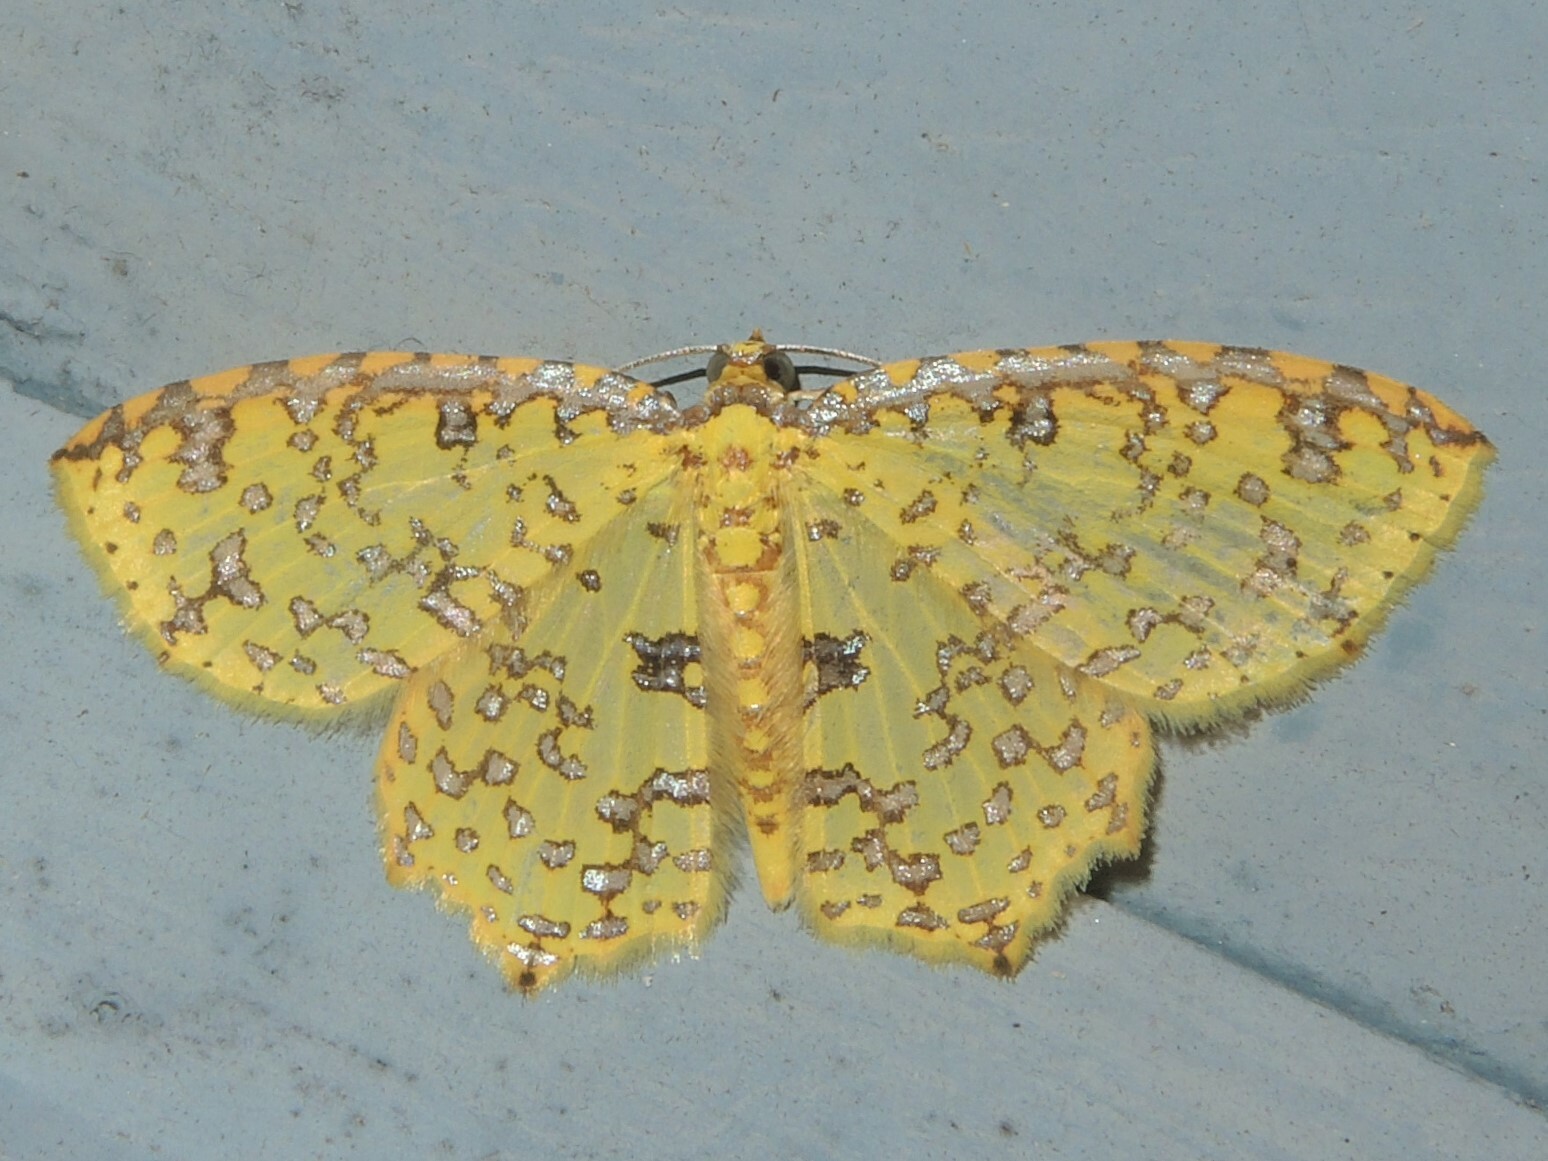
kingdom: Animalia
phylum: Arthropoda
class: Insecta
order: Lepidoptera
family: Geometridae
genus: Polynesia
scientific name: Polynesia sunandava
